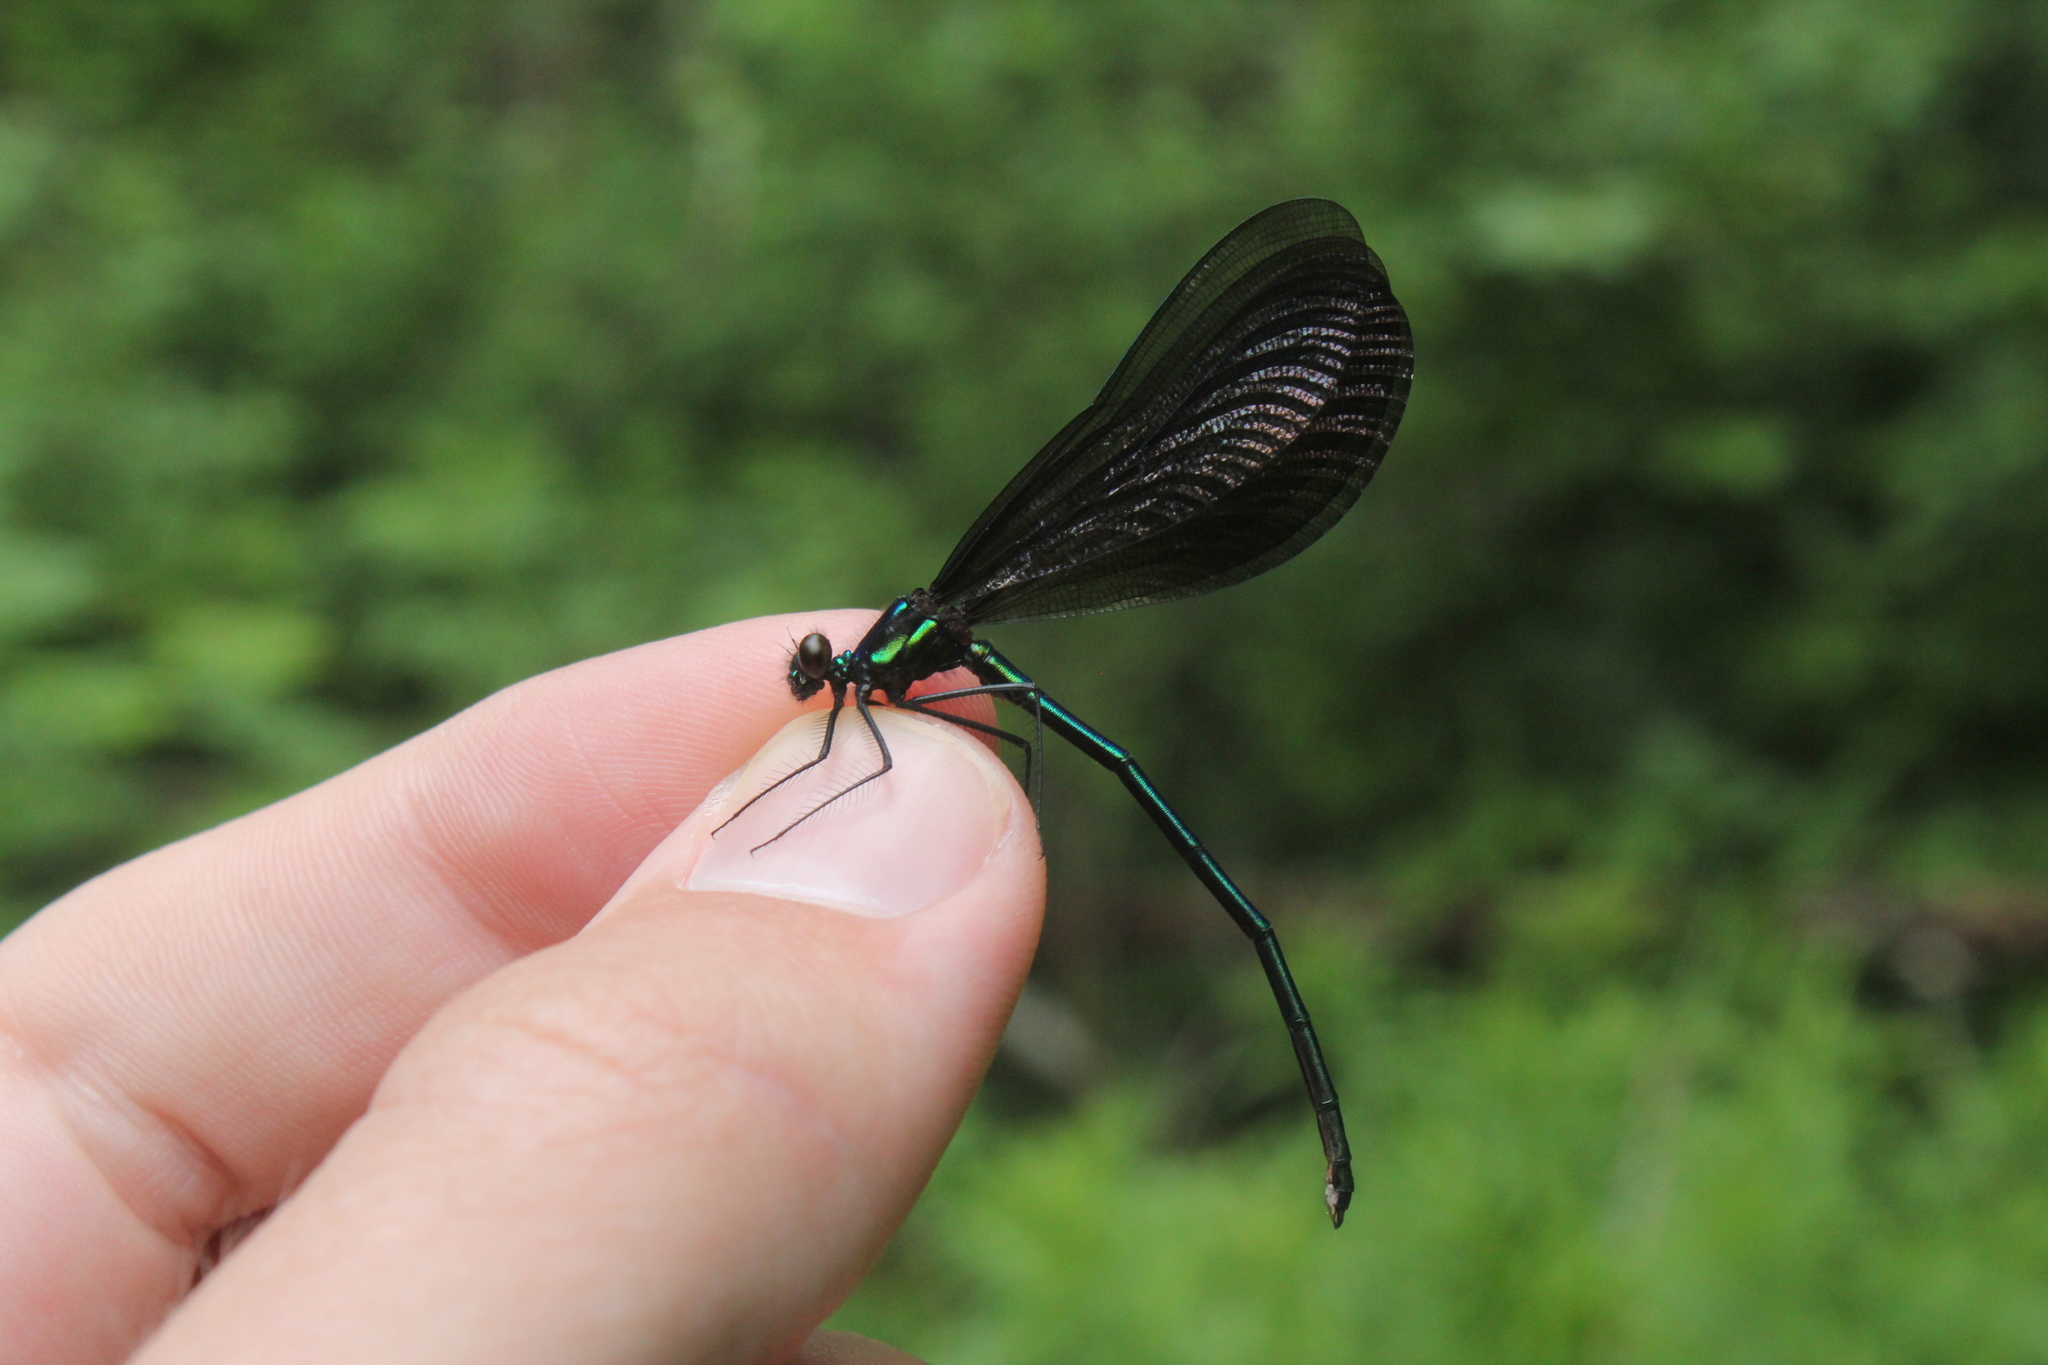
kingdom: Animalia
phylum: Arthropoda
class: Insecta
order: Odonata
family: Calopterygidae
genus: Calopteryx
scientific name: Calopteryx maculata
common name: Ebony jewelwing
